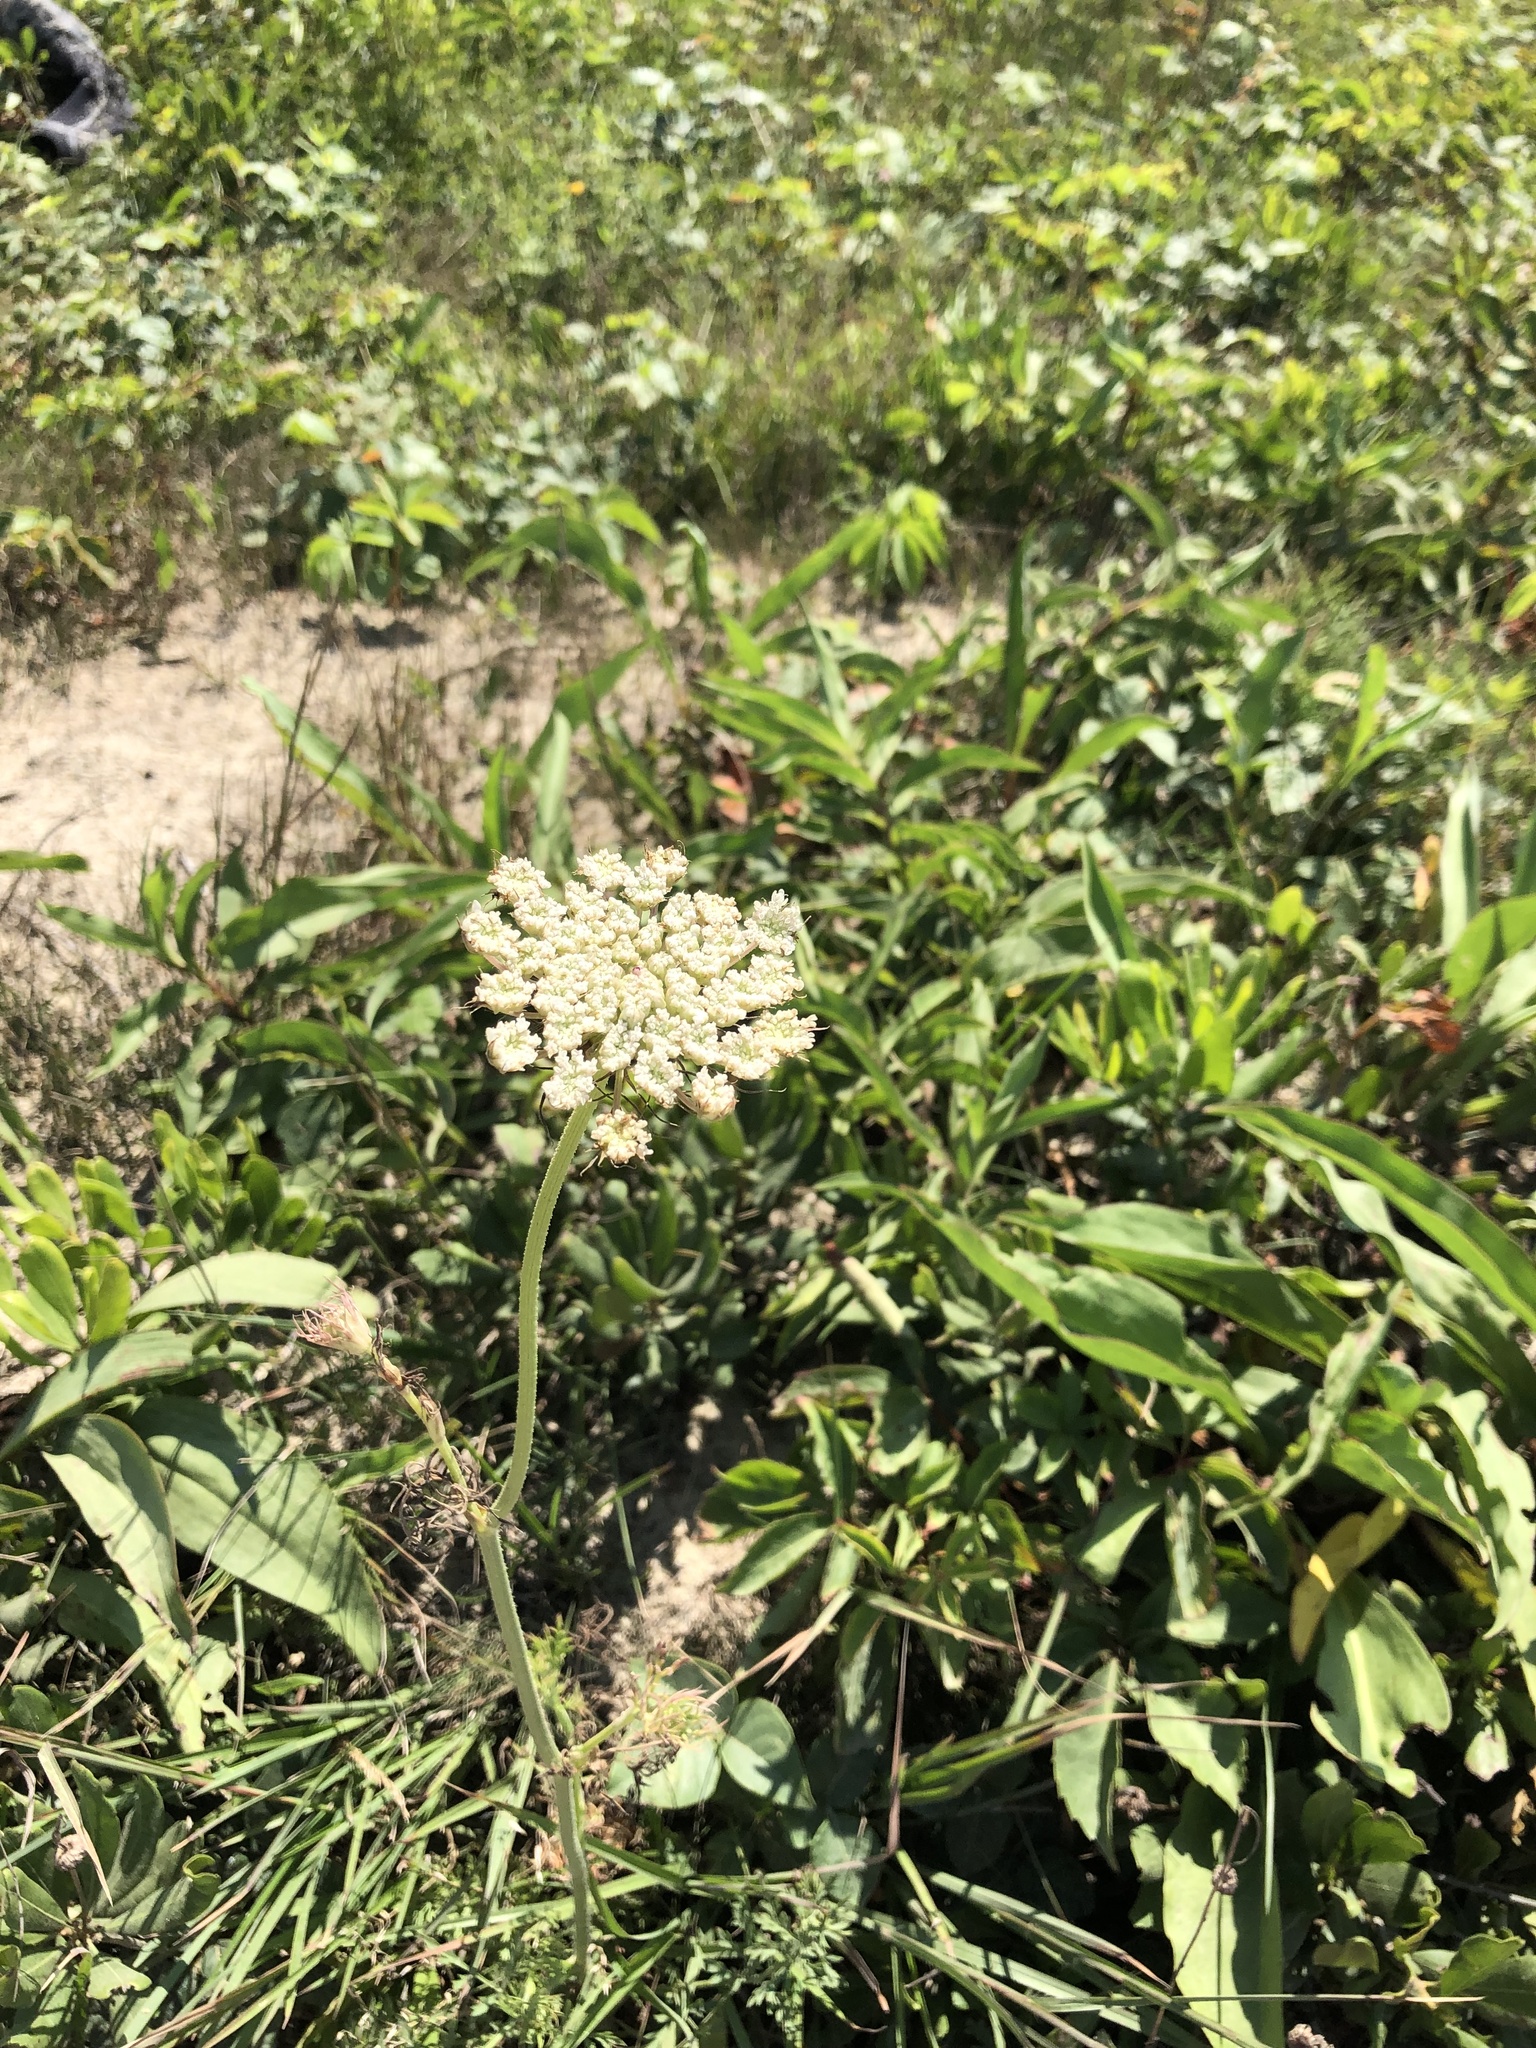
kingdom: Plantae
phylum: Tracheophyta
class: Magnoliopsida
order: Apiales
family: Apiaceae
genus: Daucus
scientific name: Daucus carota
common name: Wild carrot
